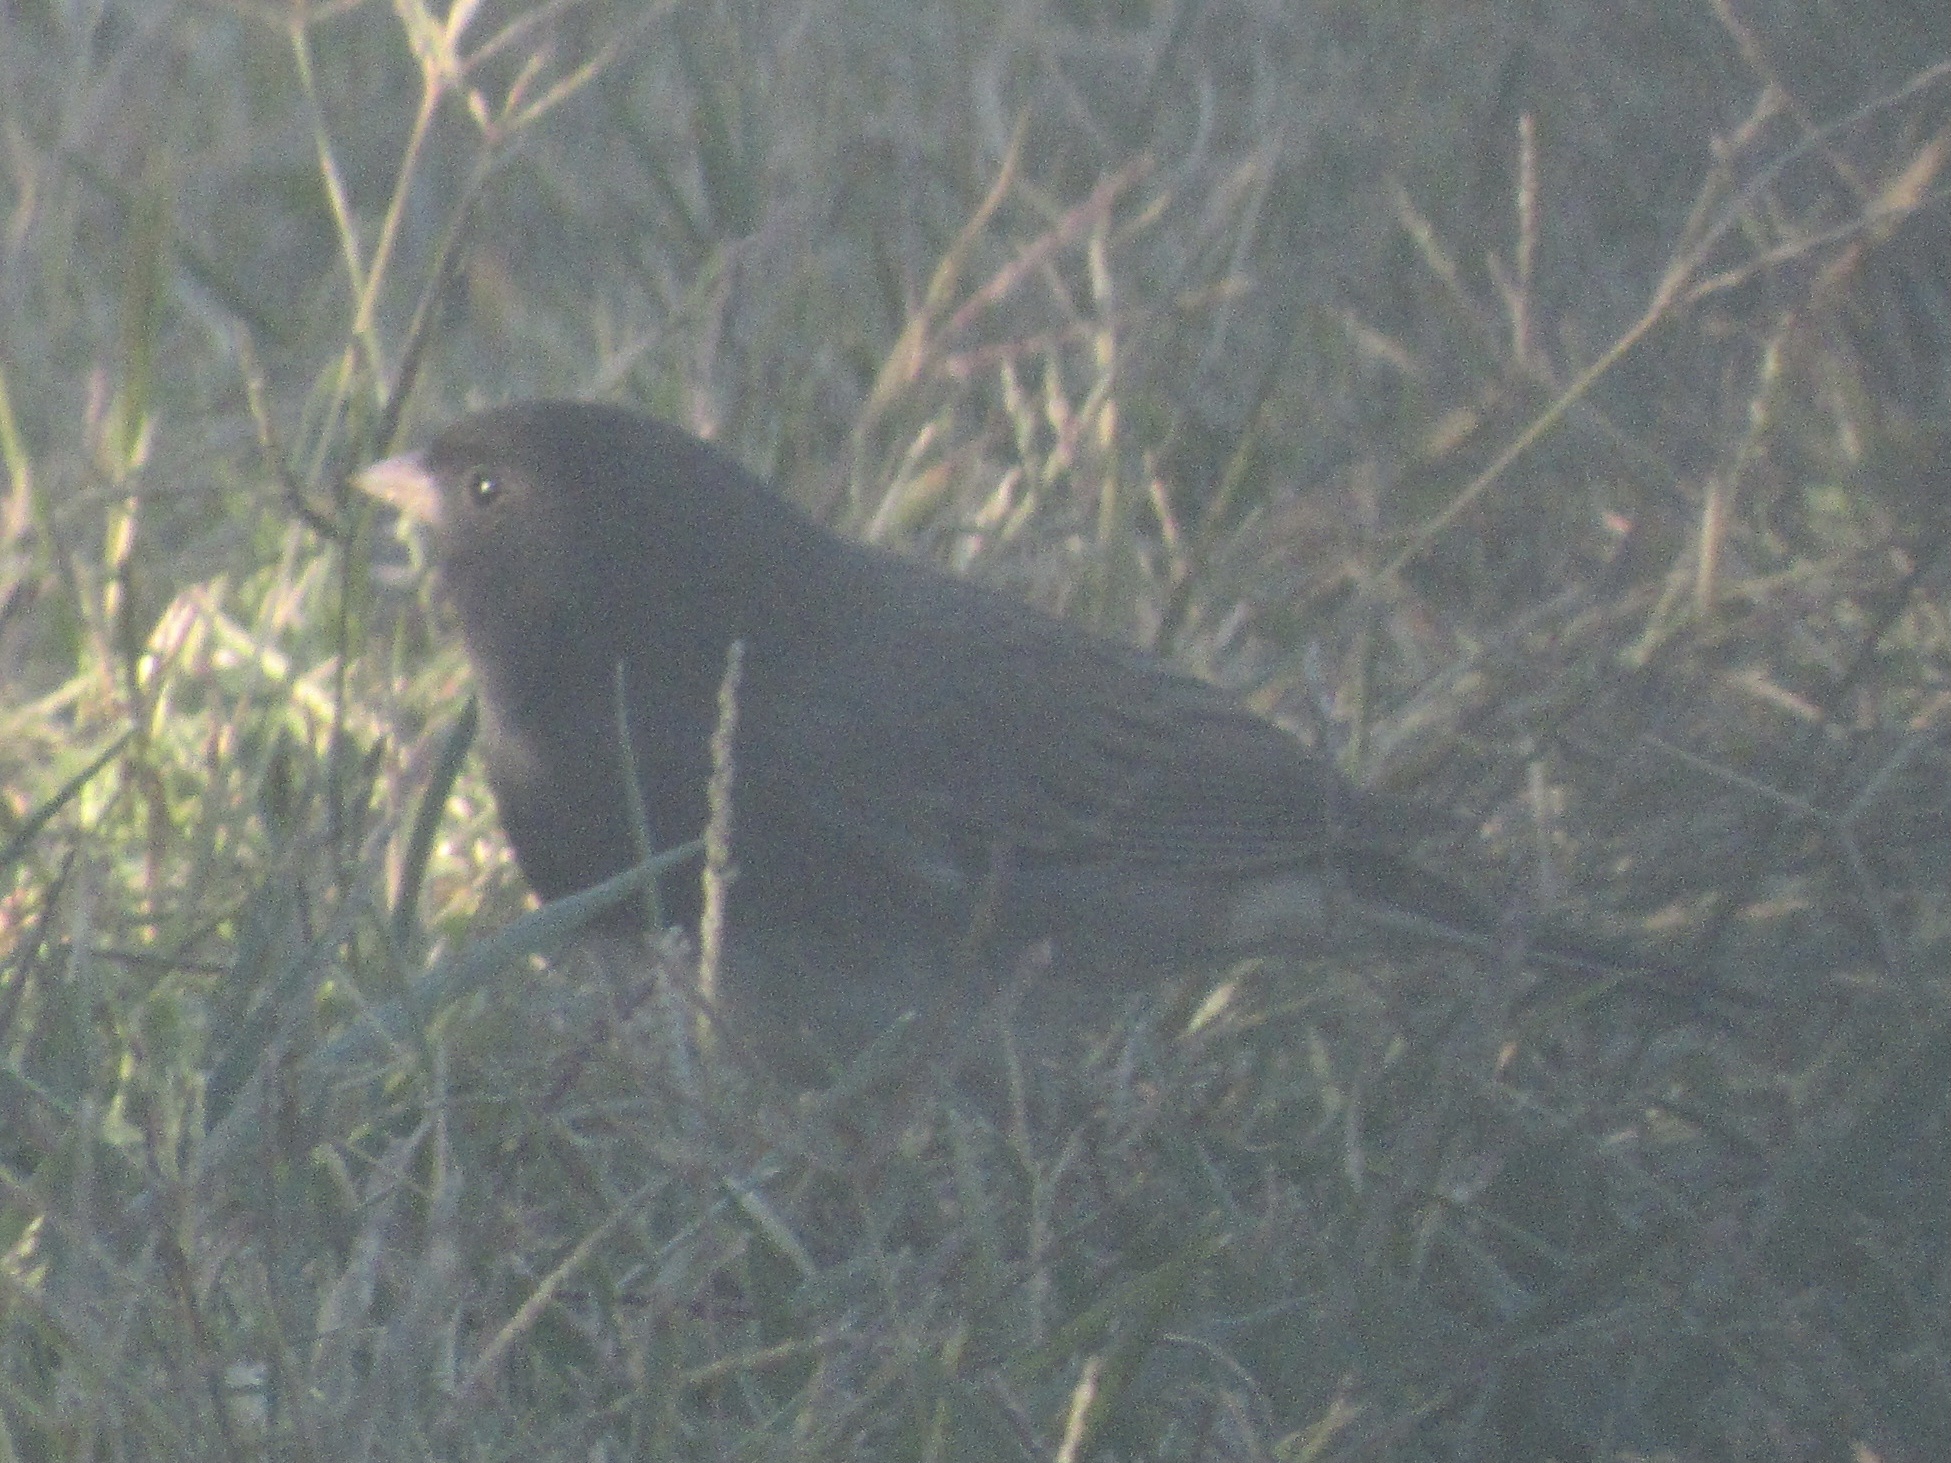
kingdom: Animalia
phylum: Chordata
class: Aves
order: Passeriformes
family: Passerellidae
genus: Junco
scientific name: Junco hyemalis
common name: Dark-eyed junco
